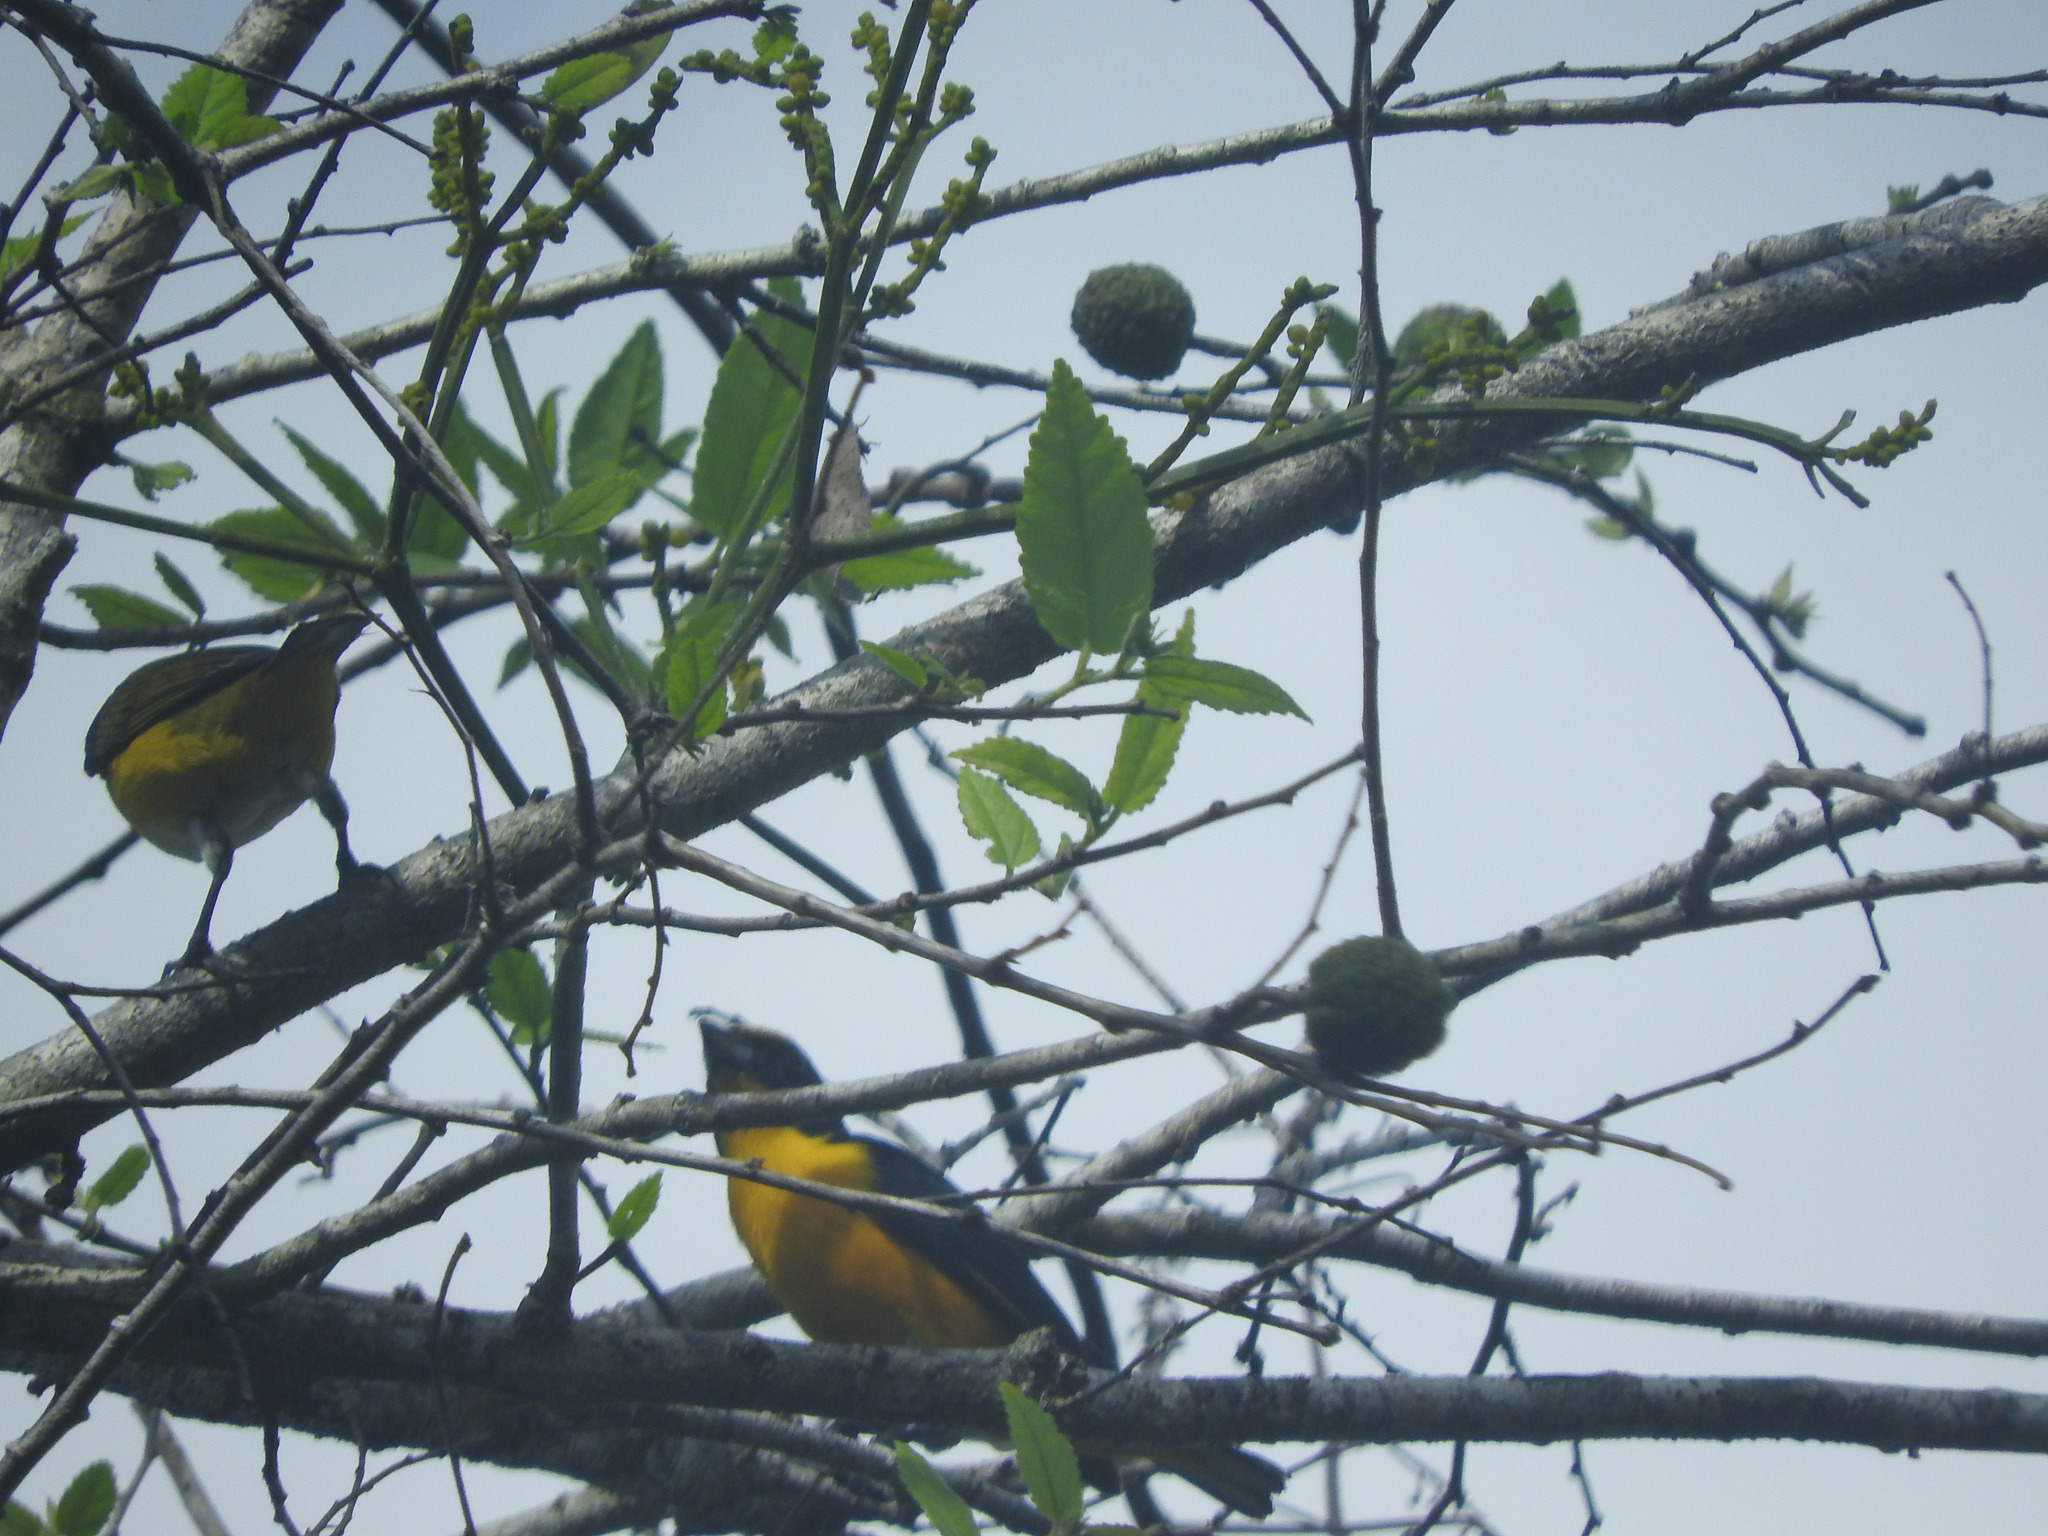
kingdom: Animalia
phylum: Chordata
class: Aves
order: Passeriformes
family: Fringillidae
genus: Euphonia
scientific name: Euphonia hirundinacea
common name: Yellow-throated euphonia
